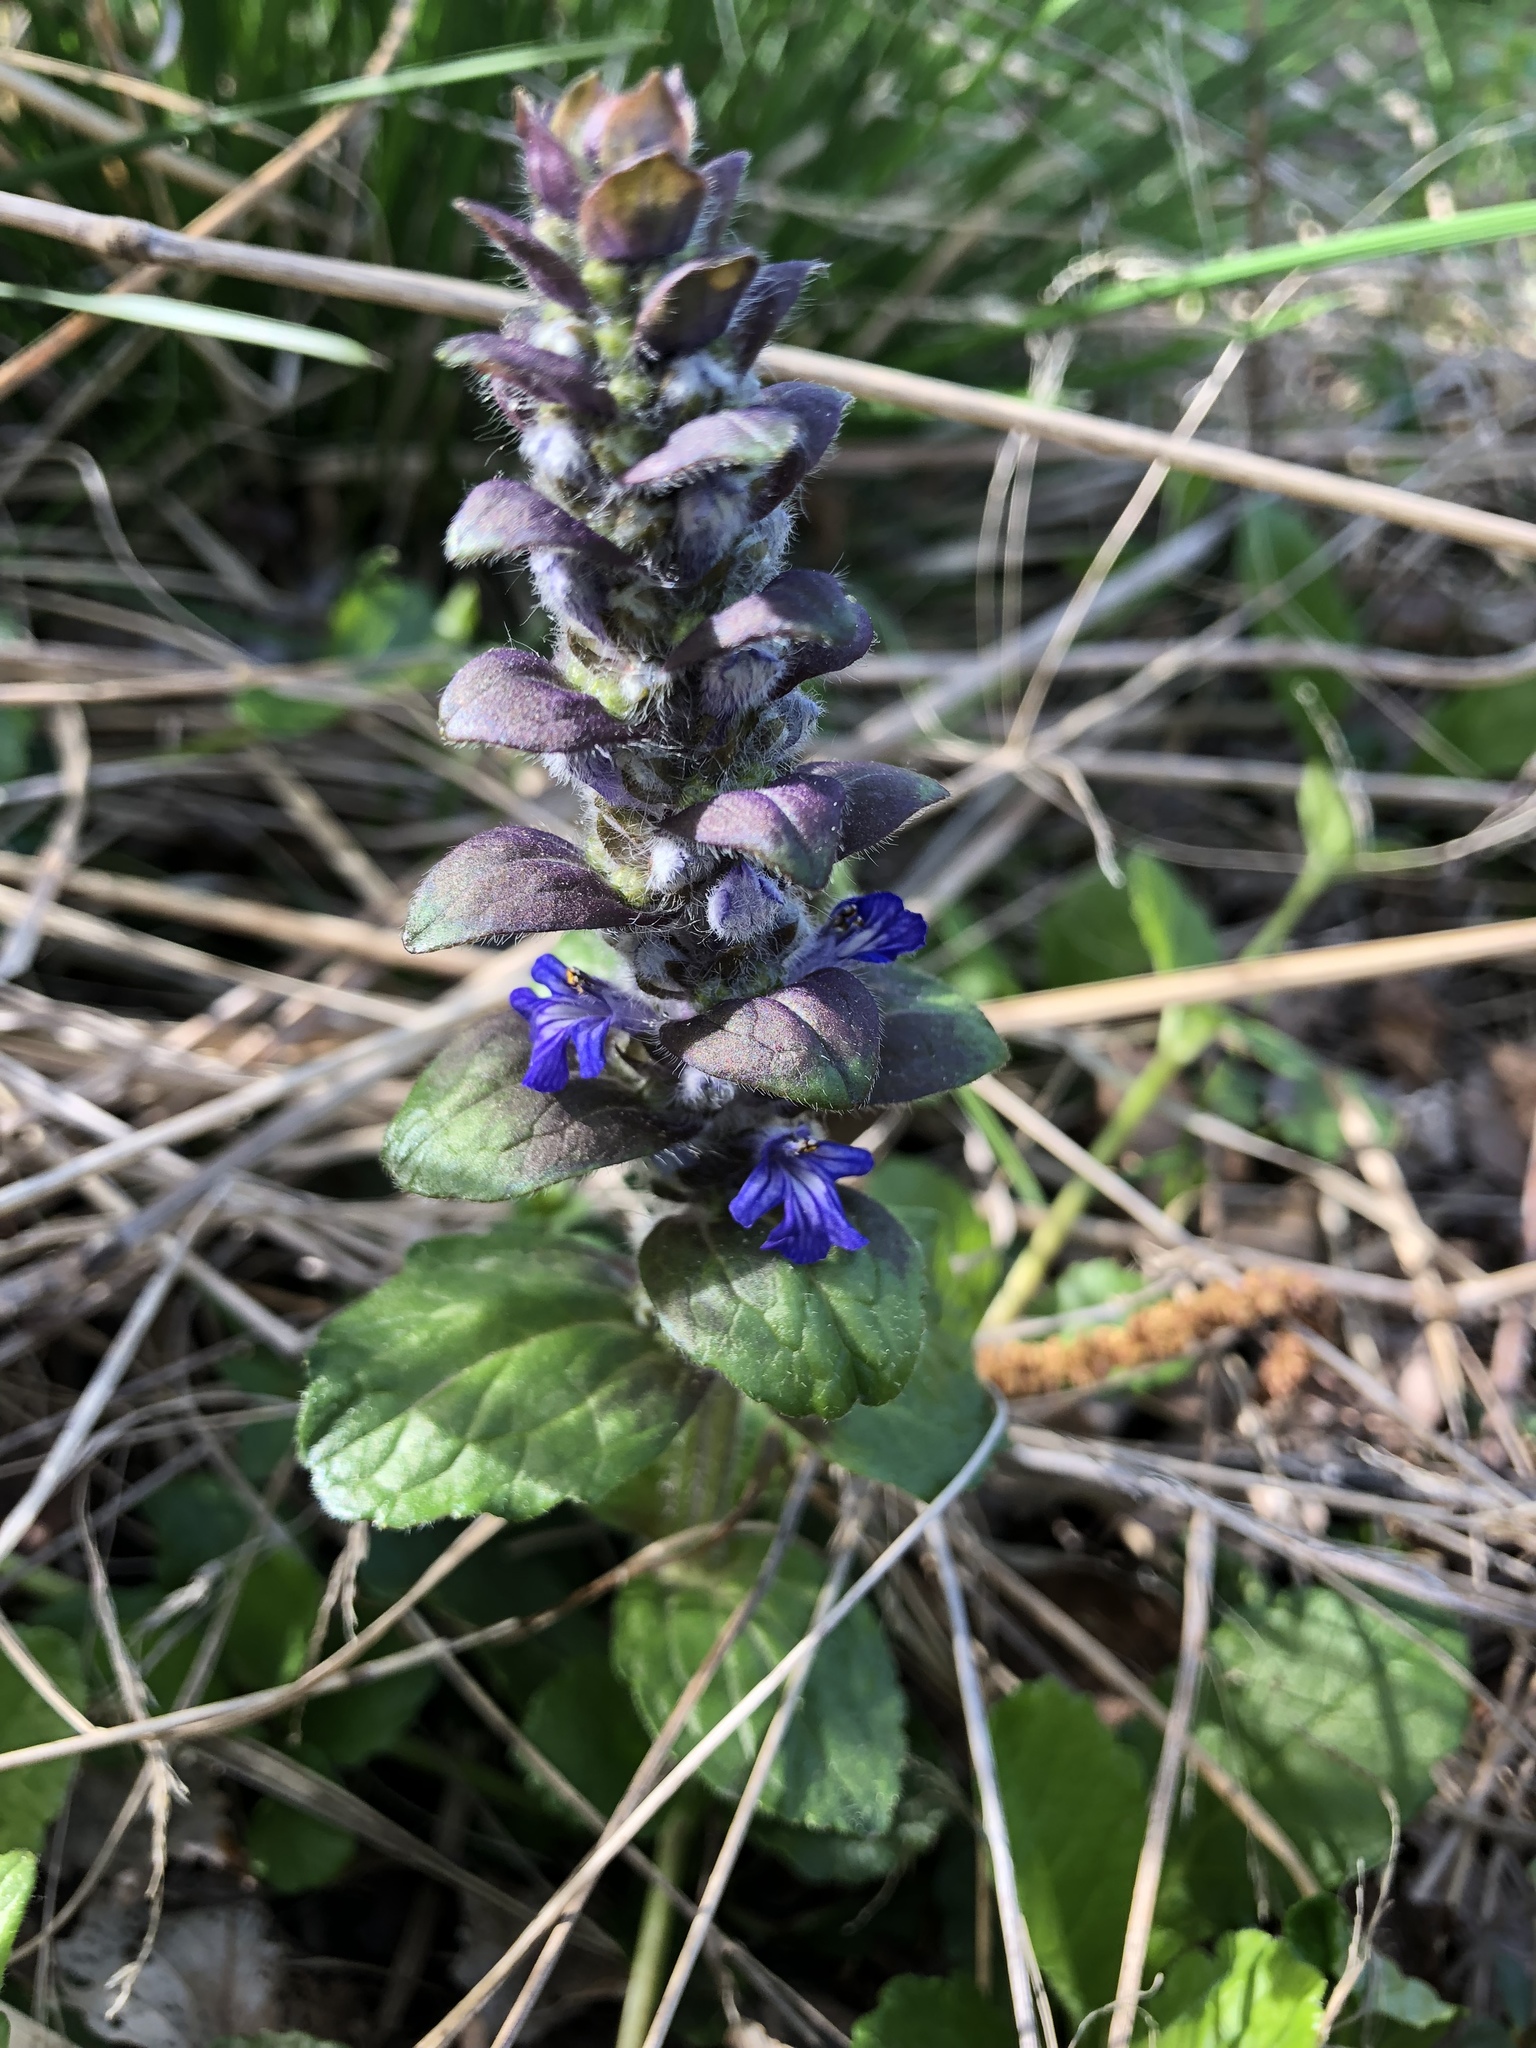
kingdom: Plantae
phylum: Tracheophyta
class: Magnoliopsida
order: Lamiales
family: Lamiaceae
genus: Ajuga
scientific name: Ajuga reptans
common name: Bugle
